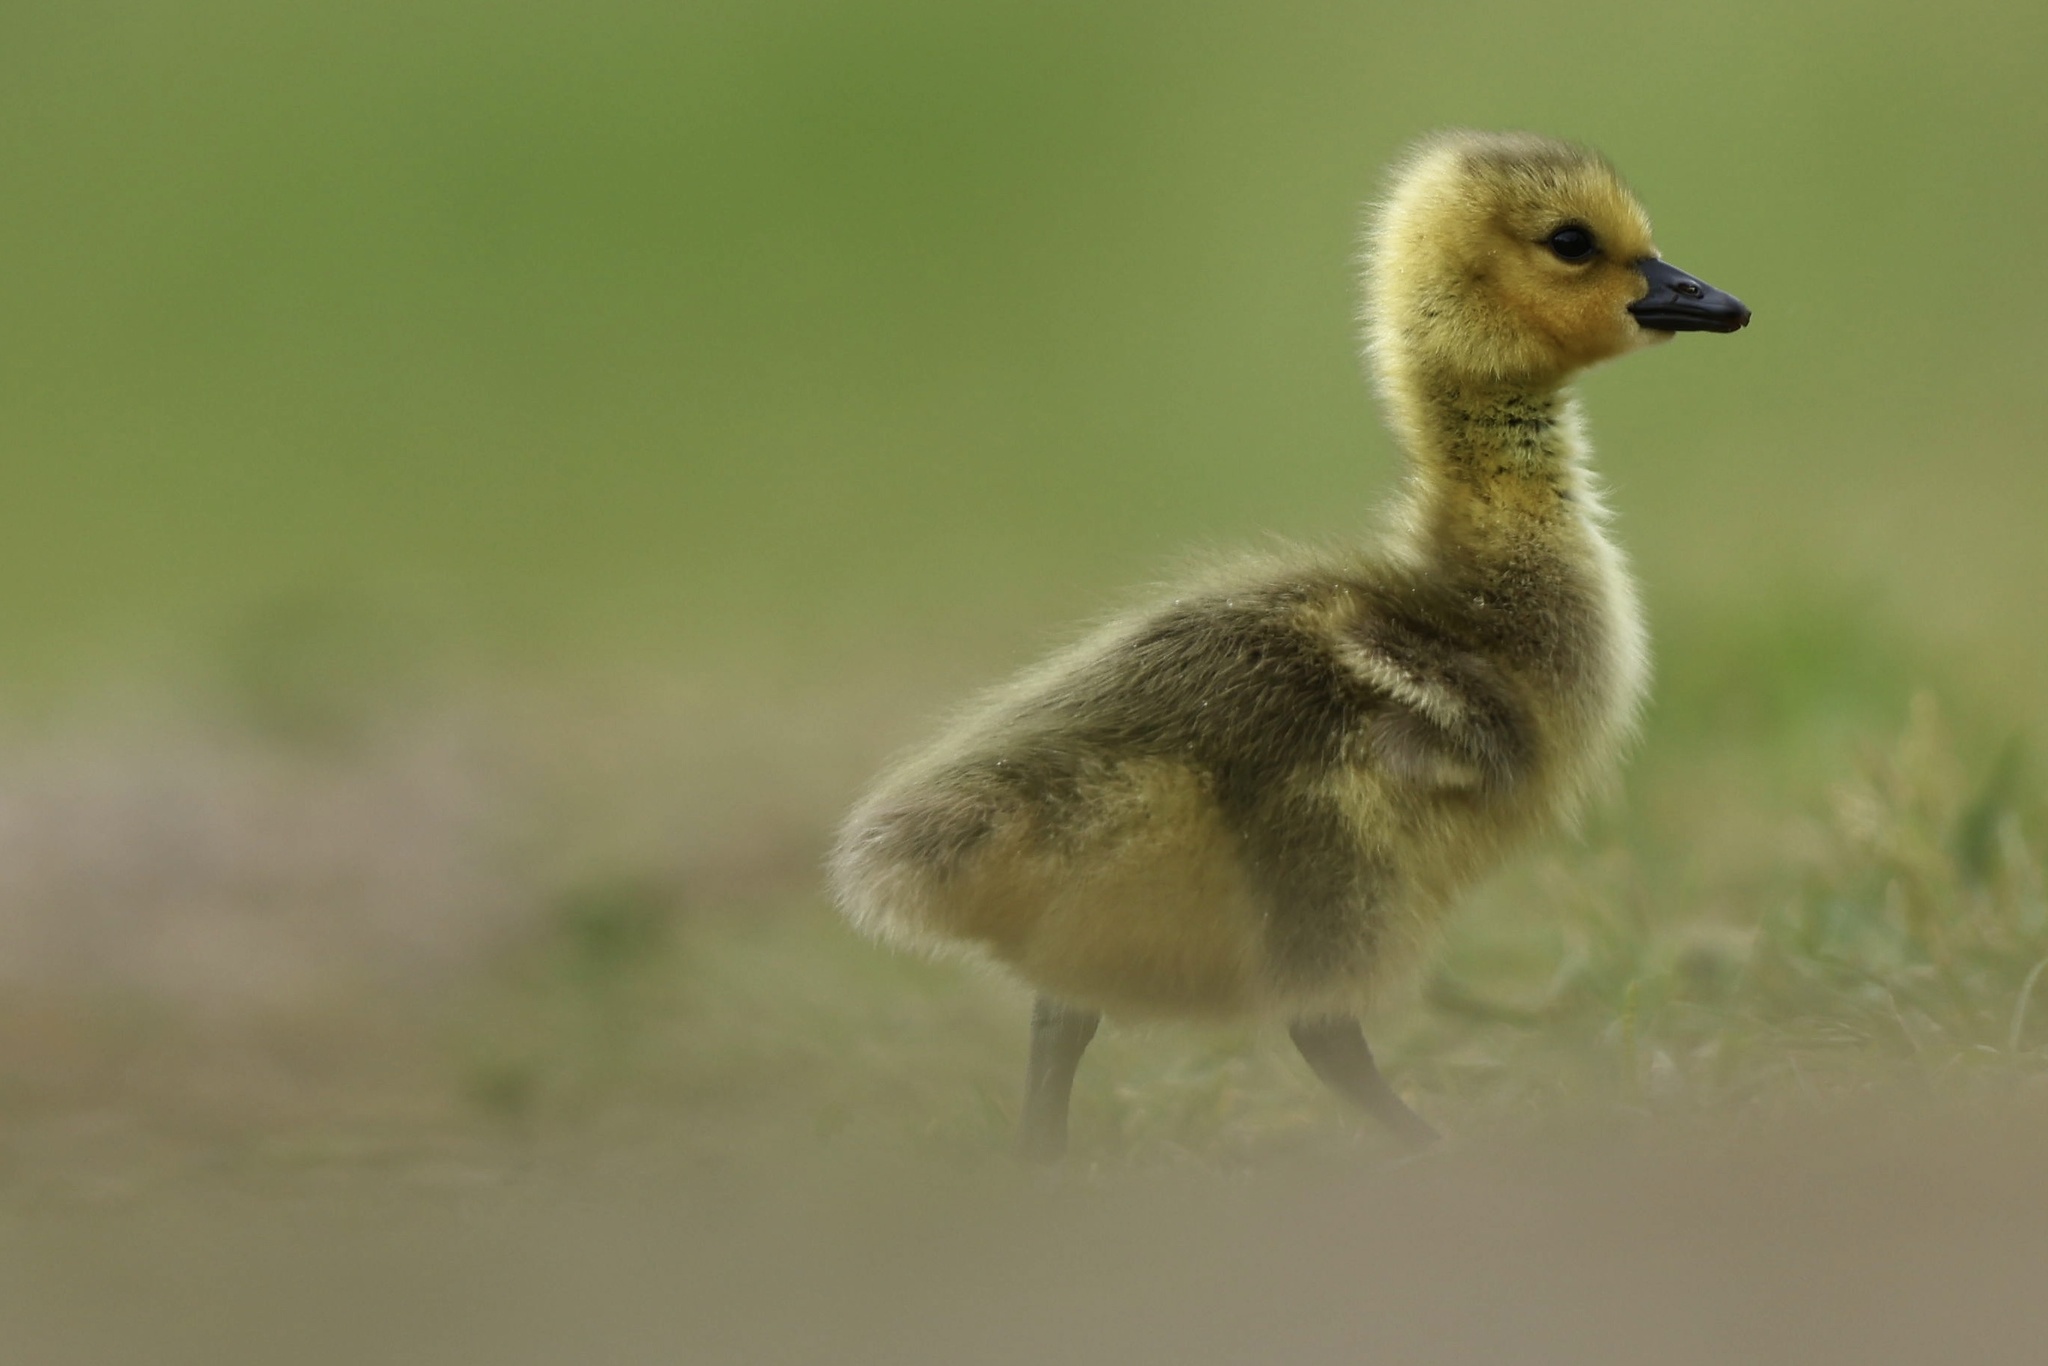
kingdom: Animalia
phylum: Chordata
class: Aves
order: Anseriformes
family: Anatidae
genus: Branta
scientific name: Branta canadensis
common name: Canada goose
